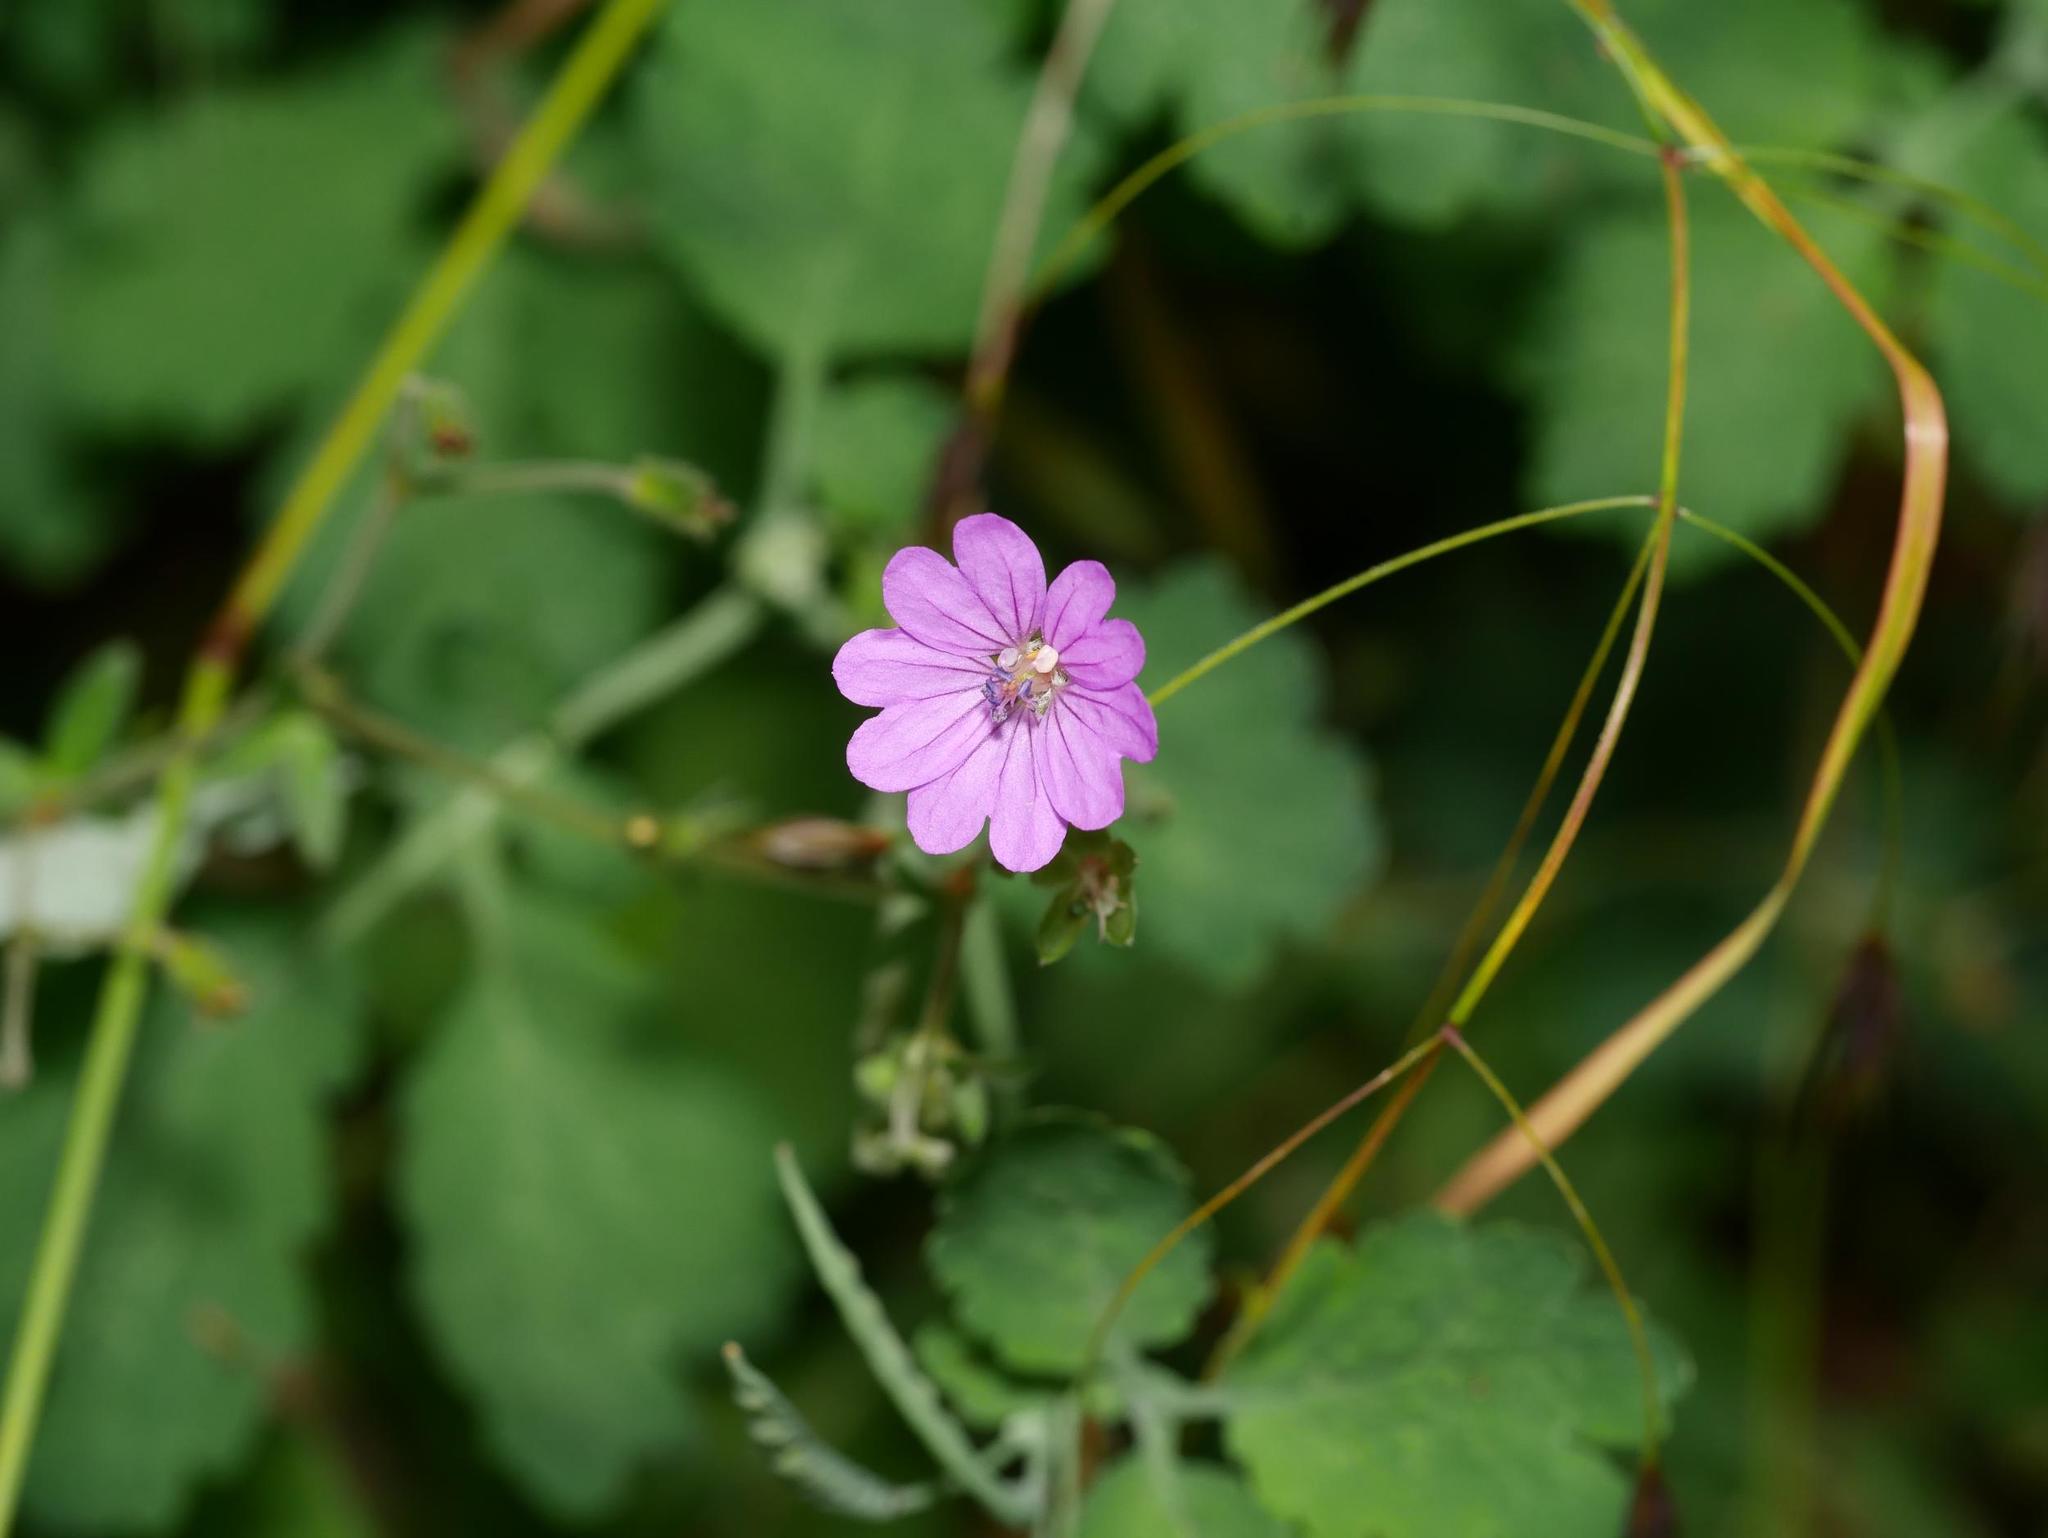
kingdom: Plantae
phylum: Tracheophyta
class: Magnoliopsida
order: Geraniales
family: Geraniaceae
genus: Geranium
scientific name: Geranium pyrenaicum
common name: Hedgerow crane's-bill
